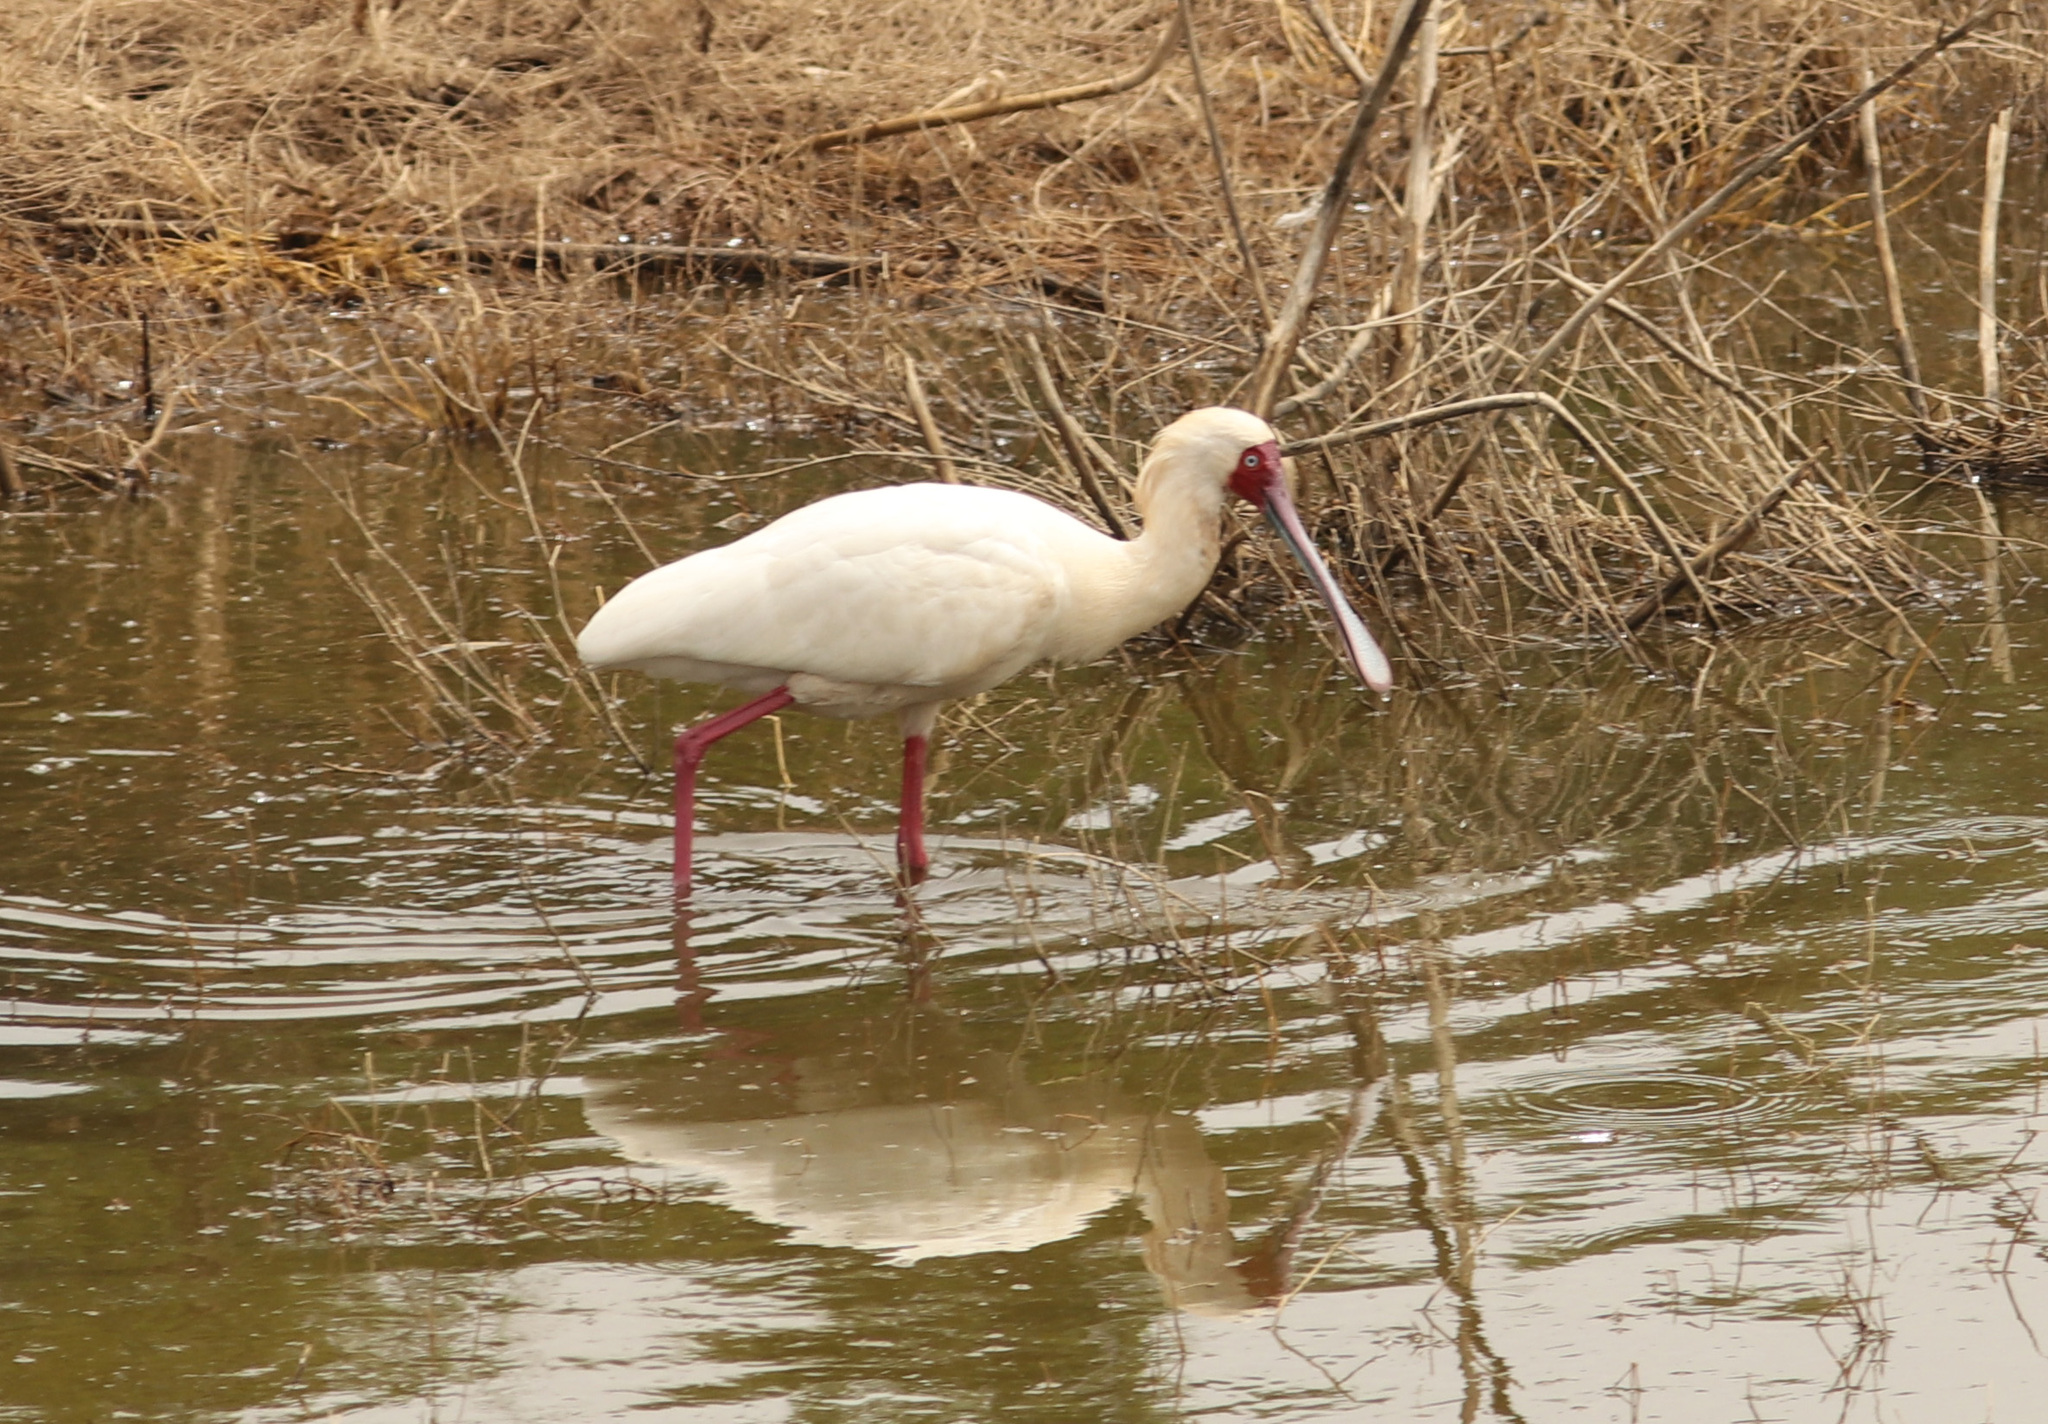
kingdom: Animalia
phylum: Chordata
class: Aves
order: Pelecaniformes
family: Threskiornithidae
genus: Platalea
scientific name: Platalea alba
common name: African spoonbill
